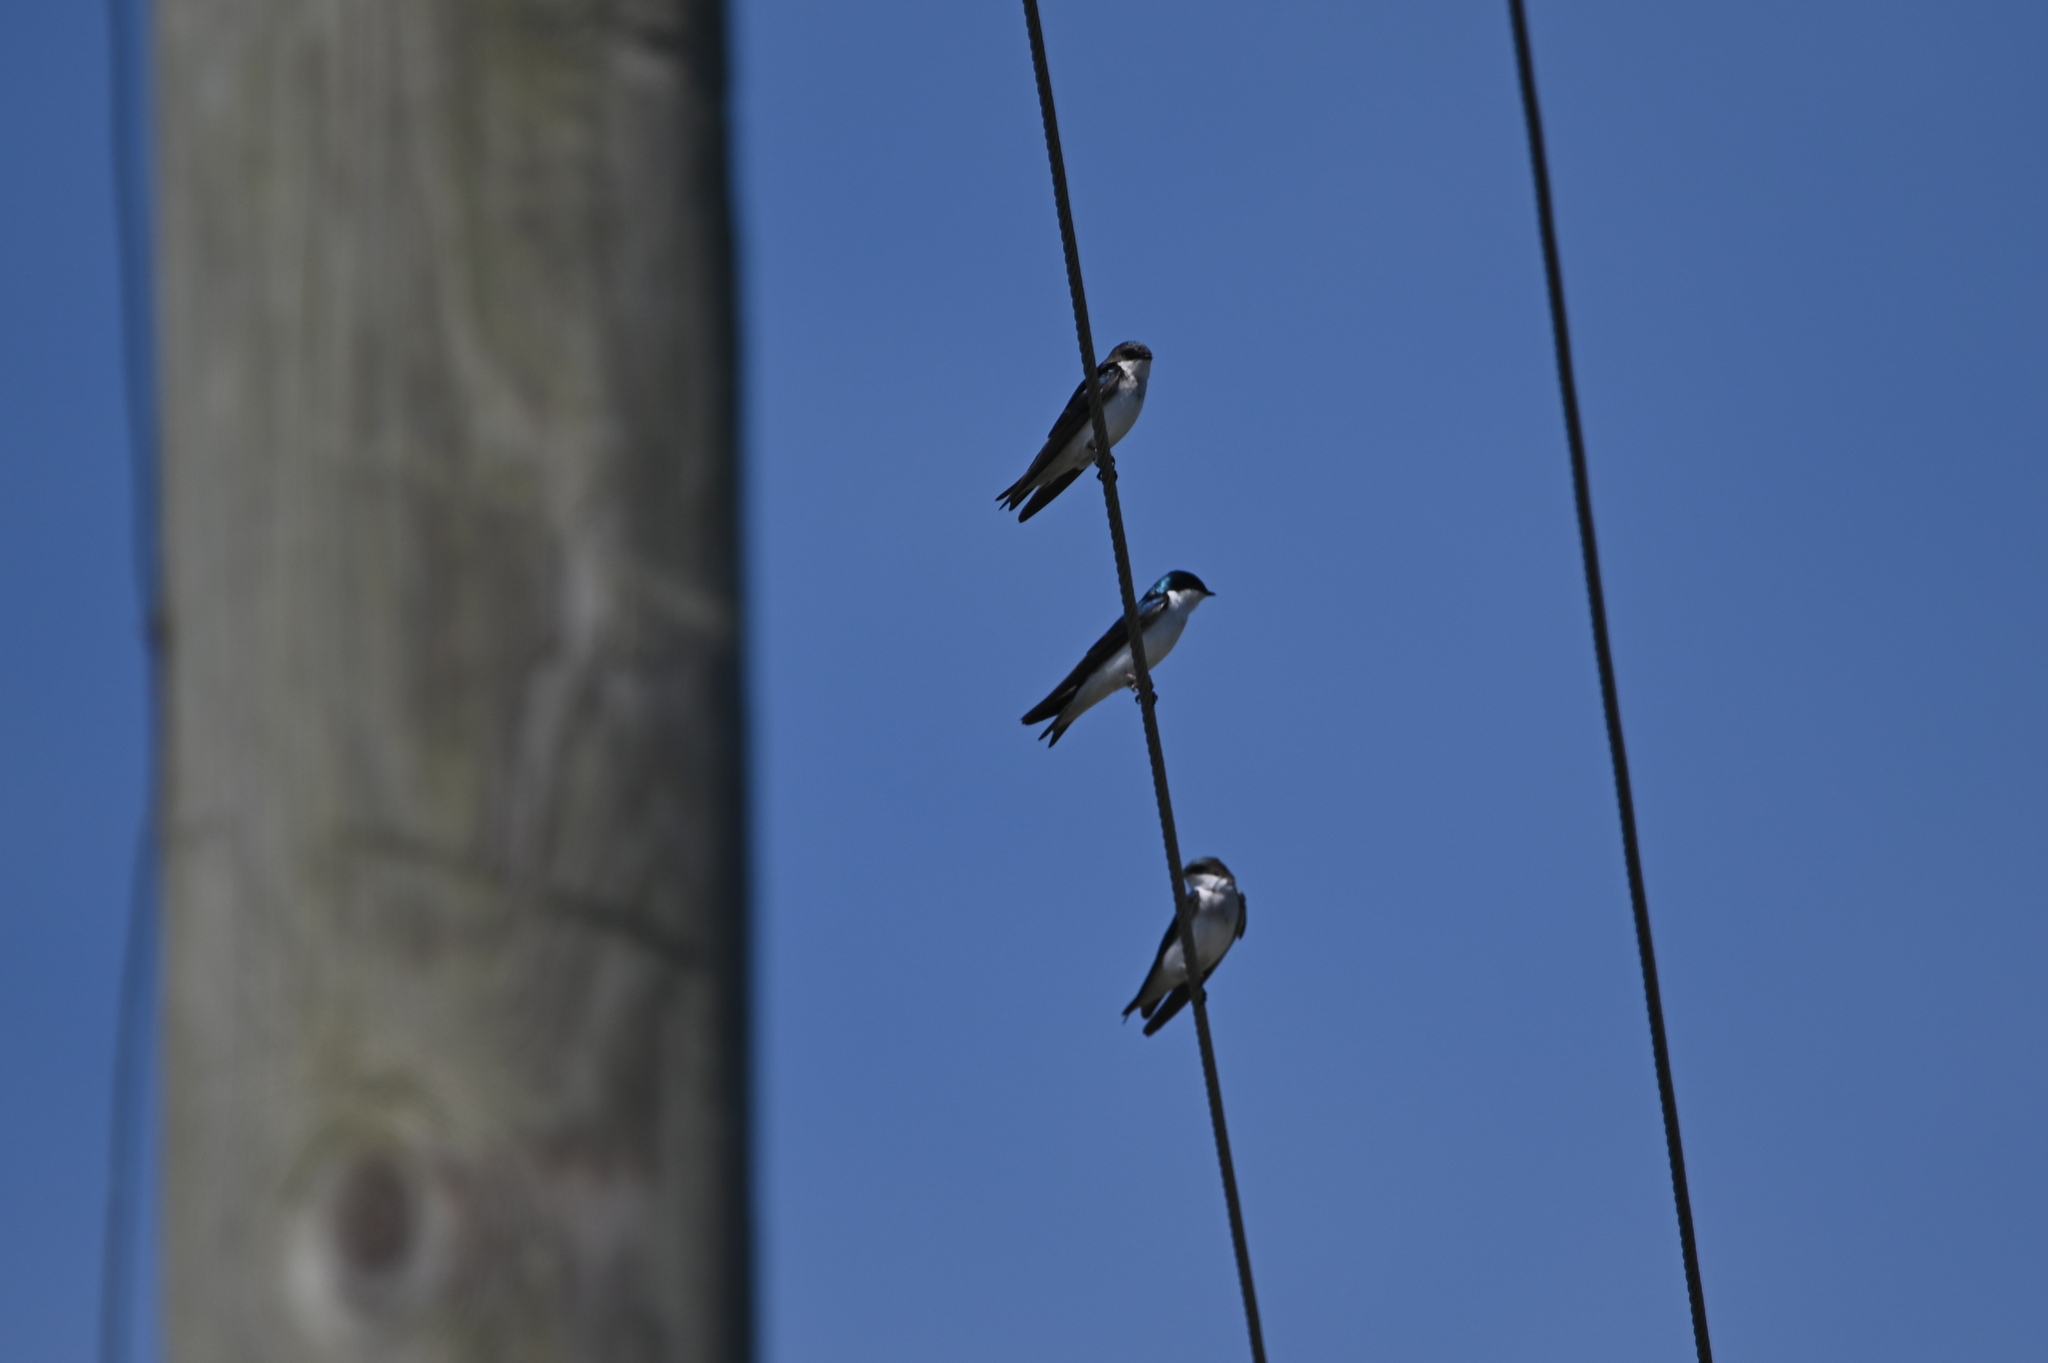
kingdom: Animalia
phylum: Chordata
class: Aves
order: Passeriformes
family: Hirundinidae
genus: Tachycineta
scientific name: Tachycineta bicolor
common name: Tree swallow
